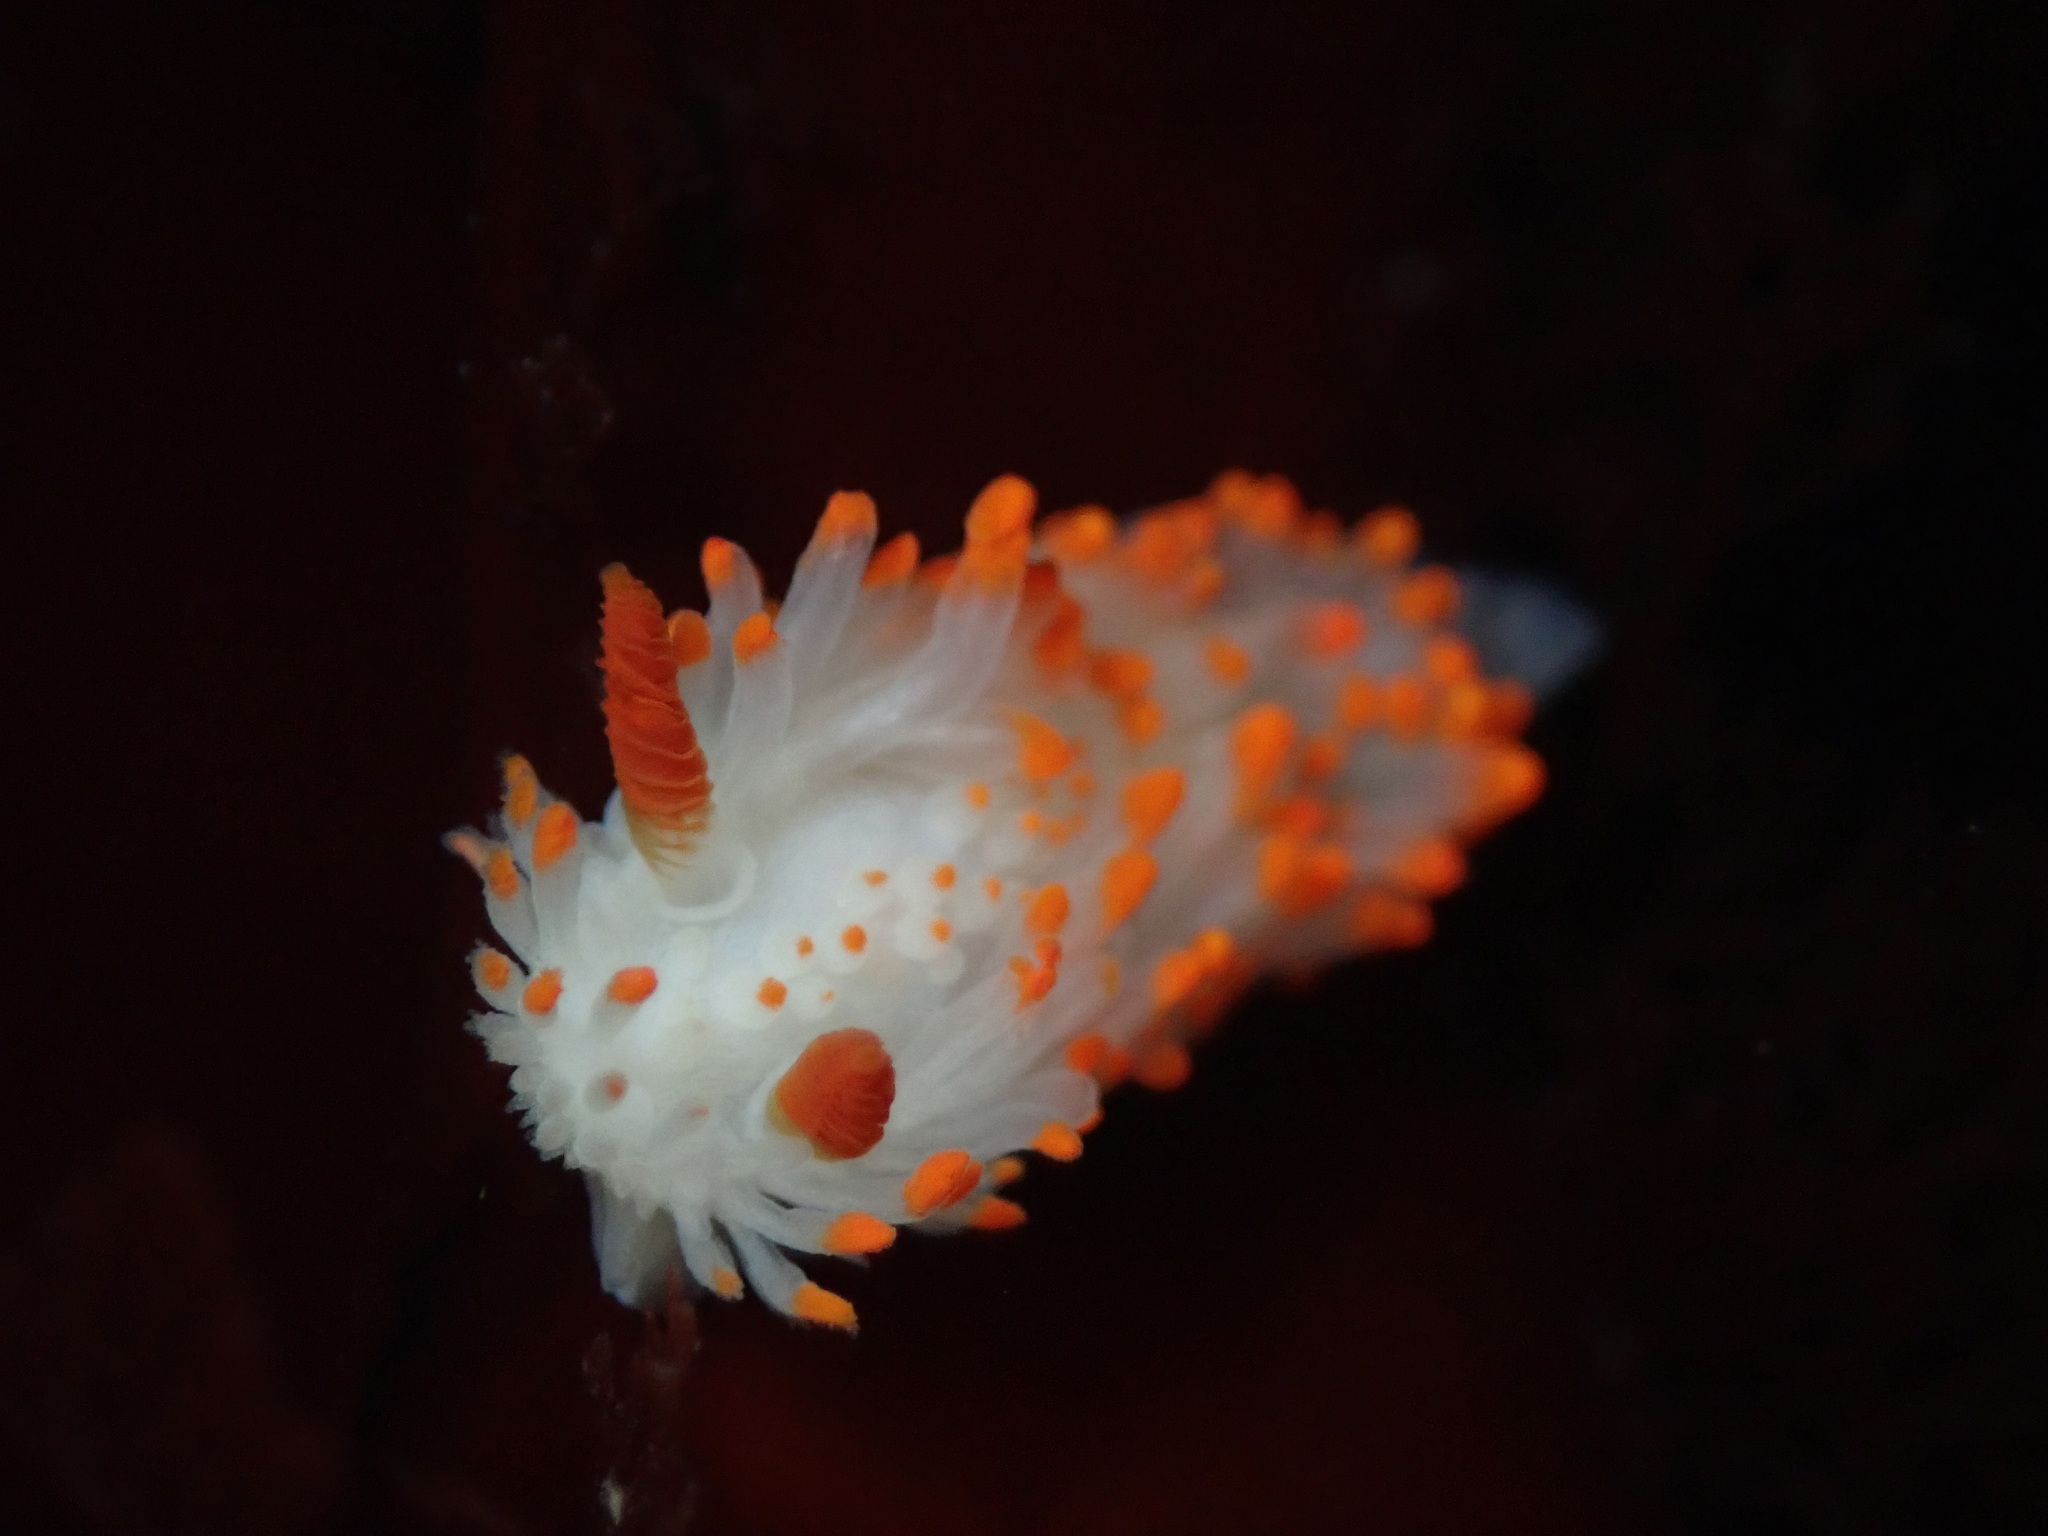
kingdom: Animalia
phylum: Mollusca
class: Gastropoda
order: Nudibranchia
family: Polyceridae
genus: Limacia
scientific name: Limacia cockerelli
